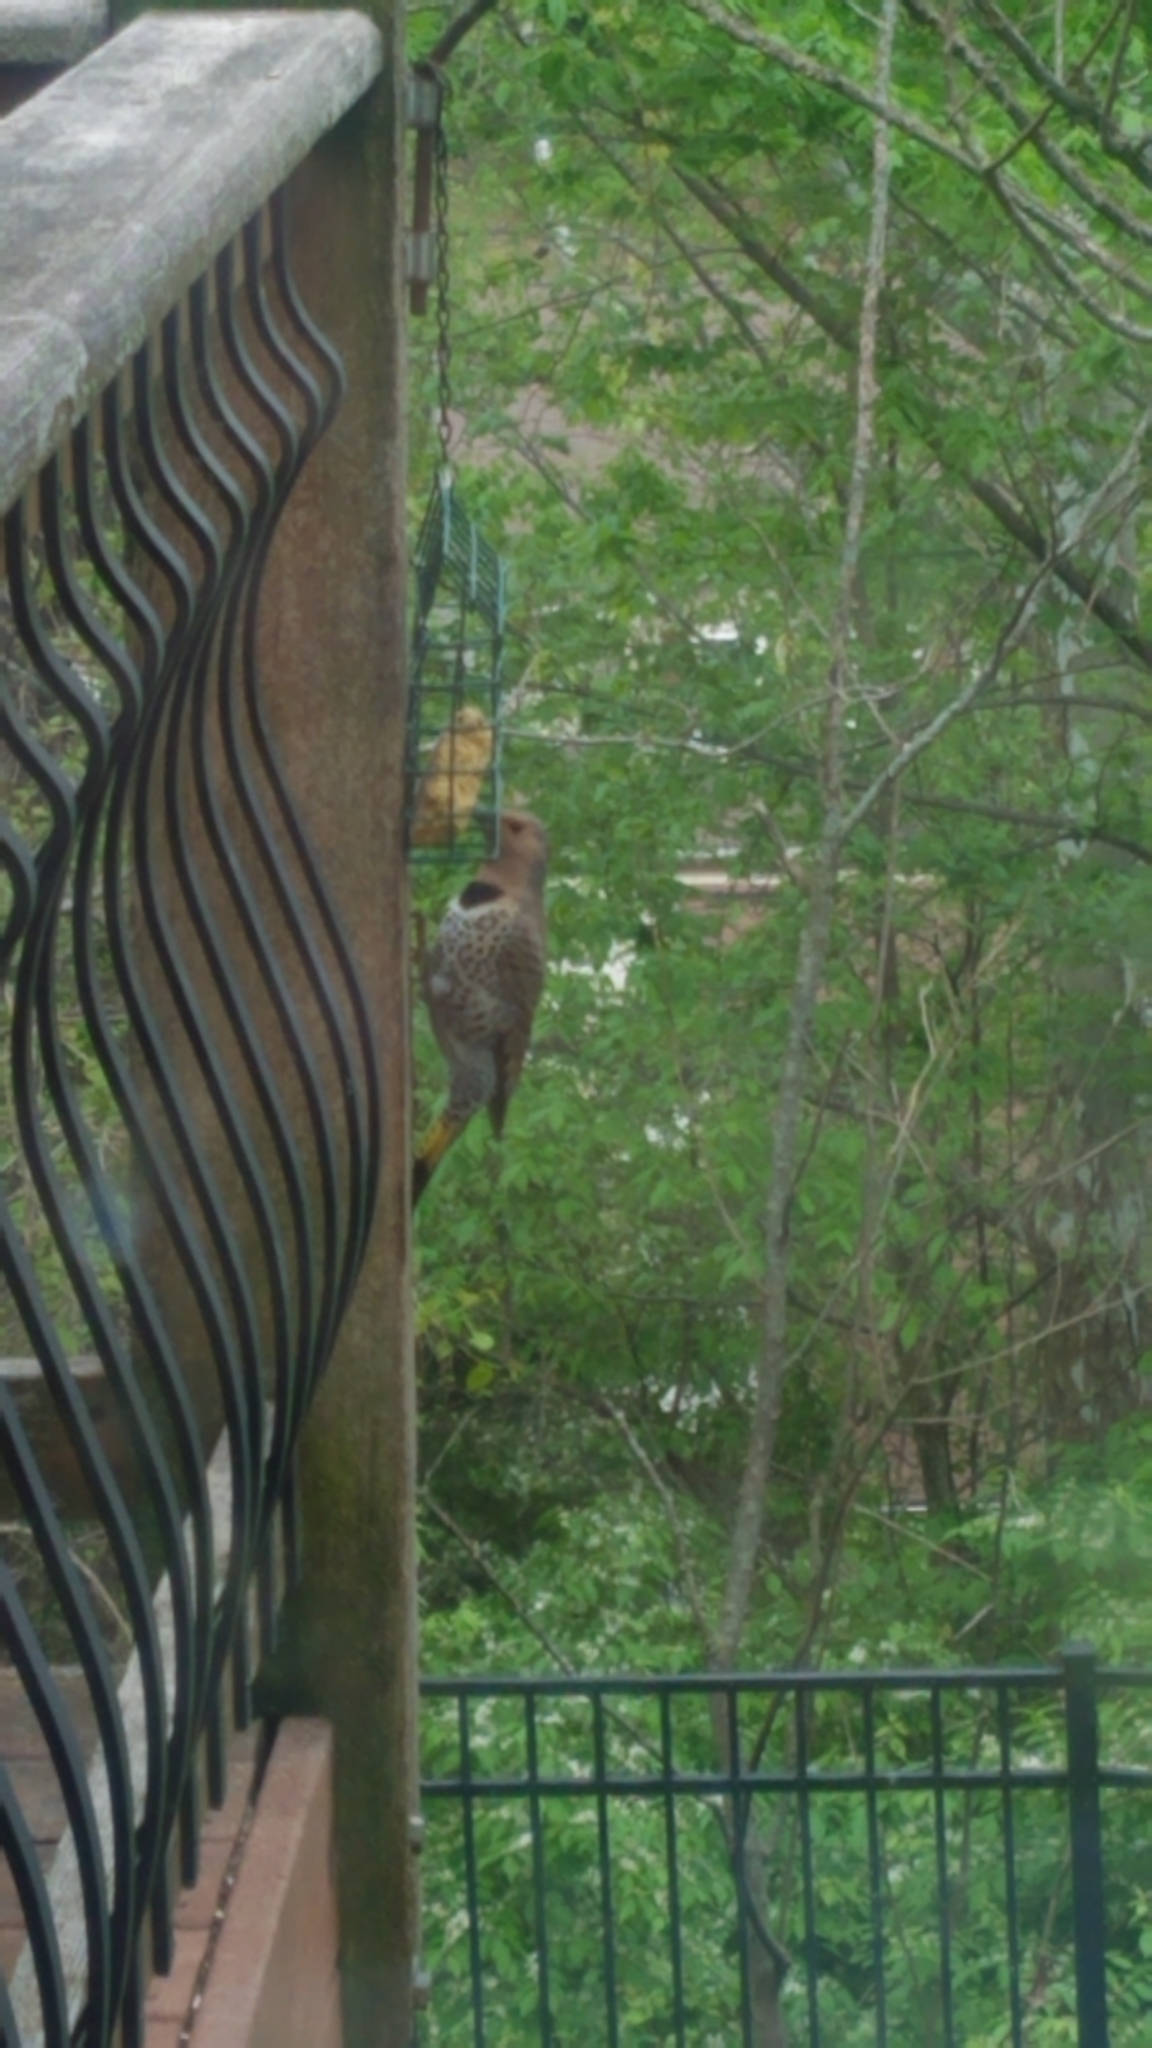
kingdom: Animalia
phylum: Chordata
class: Aves
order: Piciformes
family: Picidae
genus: Colaptes
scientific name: Colaptes auratus
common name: Northern flicker
